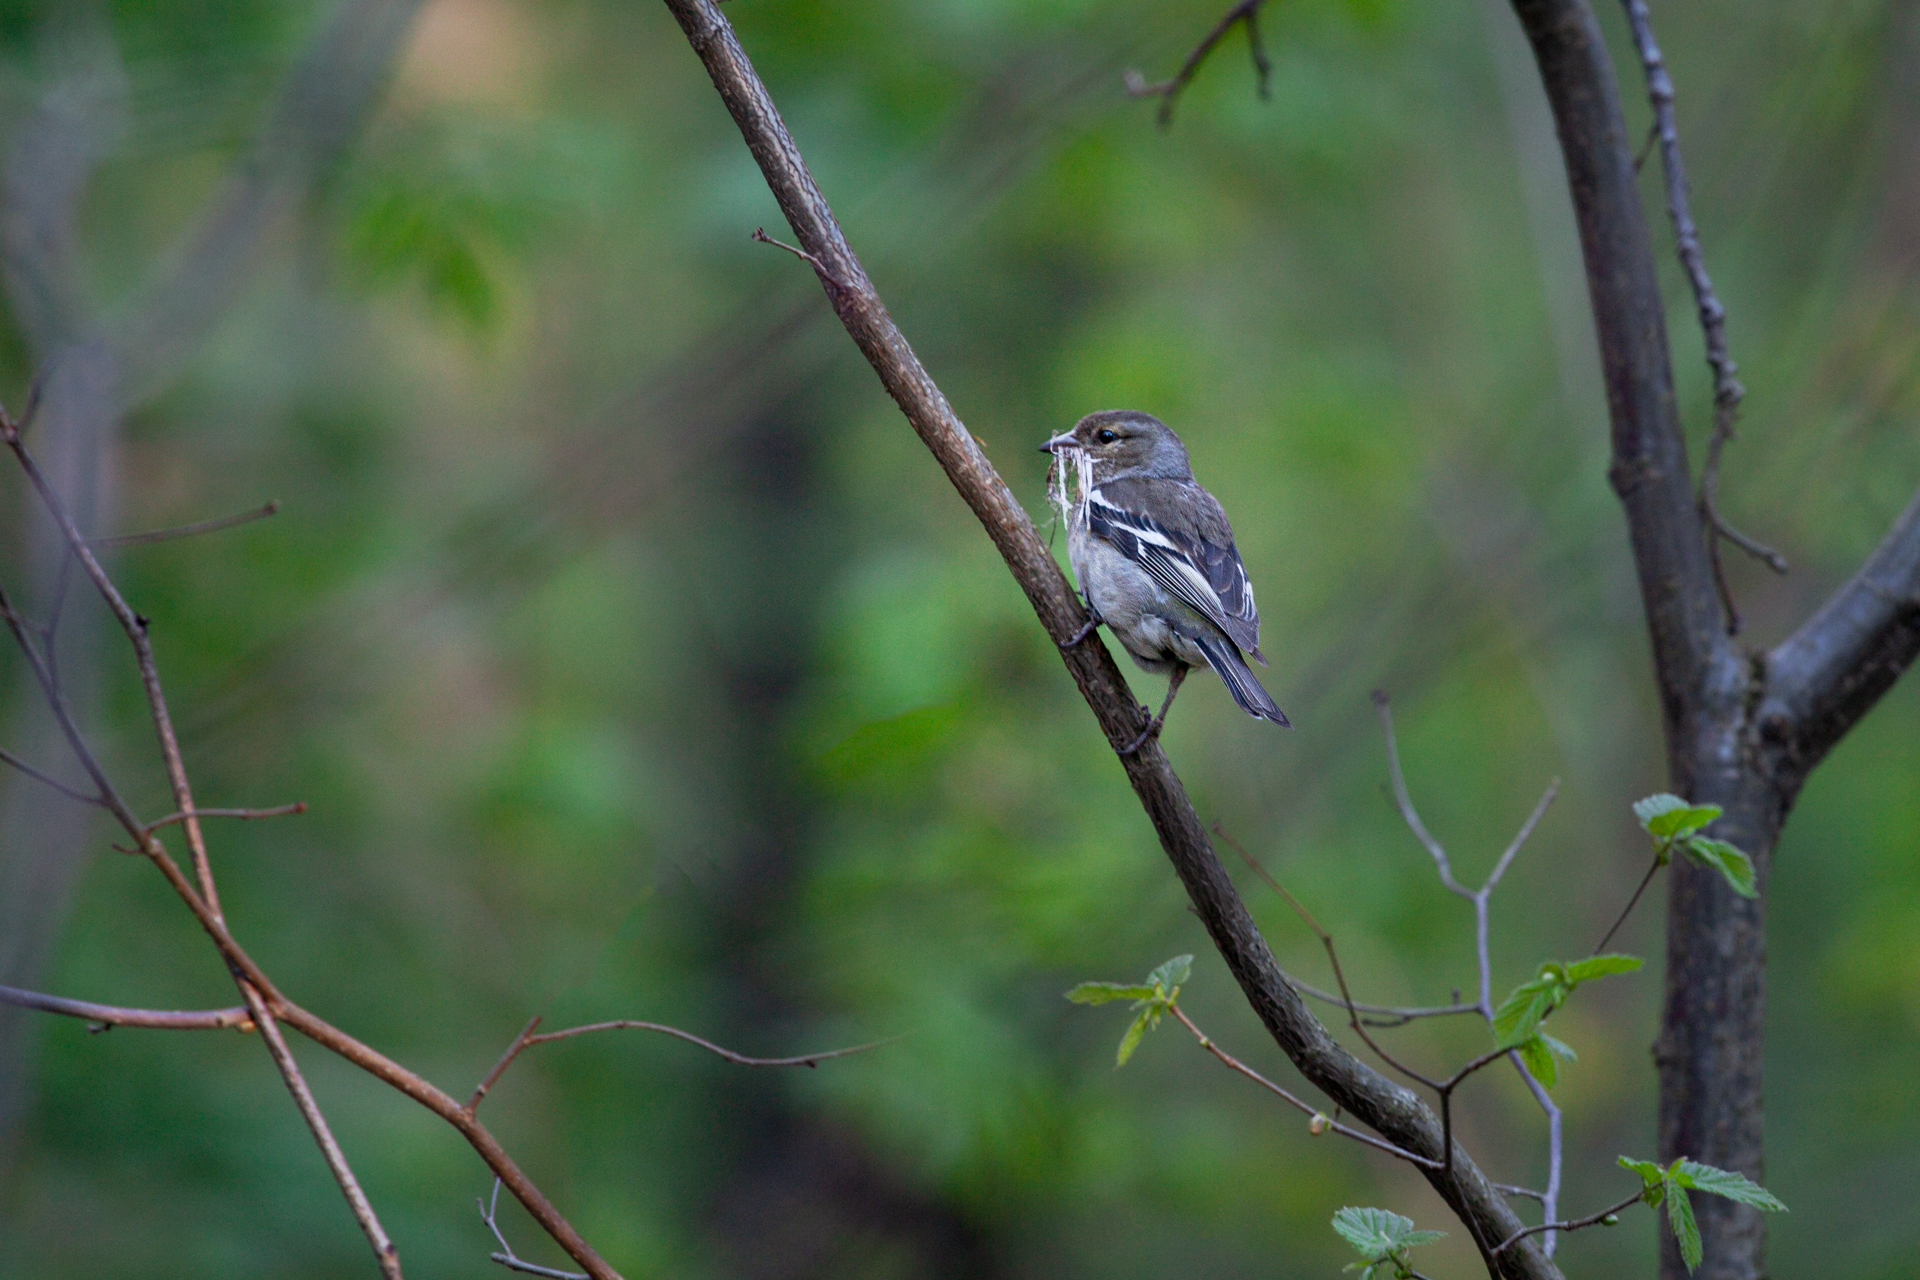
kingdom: Animalia
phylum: Chordata
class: Aves
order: Passeriformes
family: Fringillidae
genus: Fringilla
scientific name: Fringilla coelebs
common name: Common chaffinch
